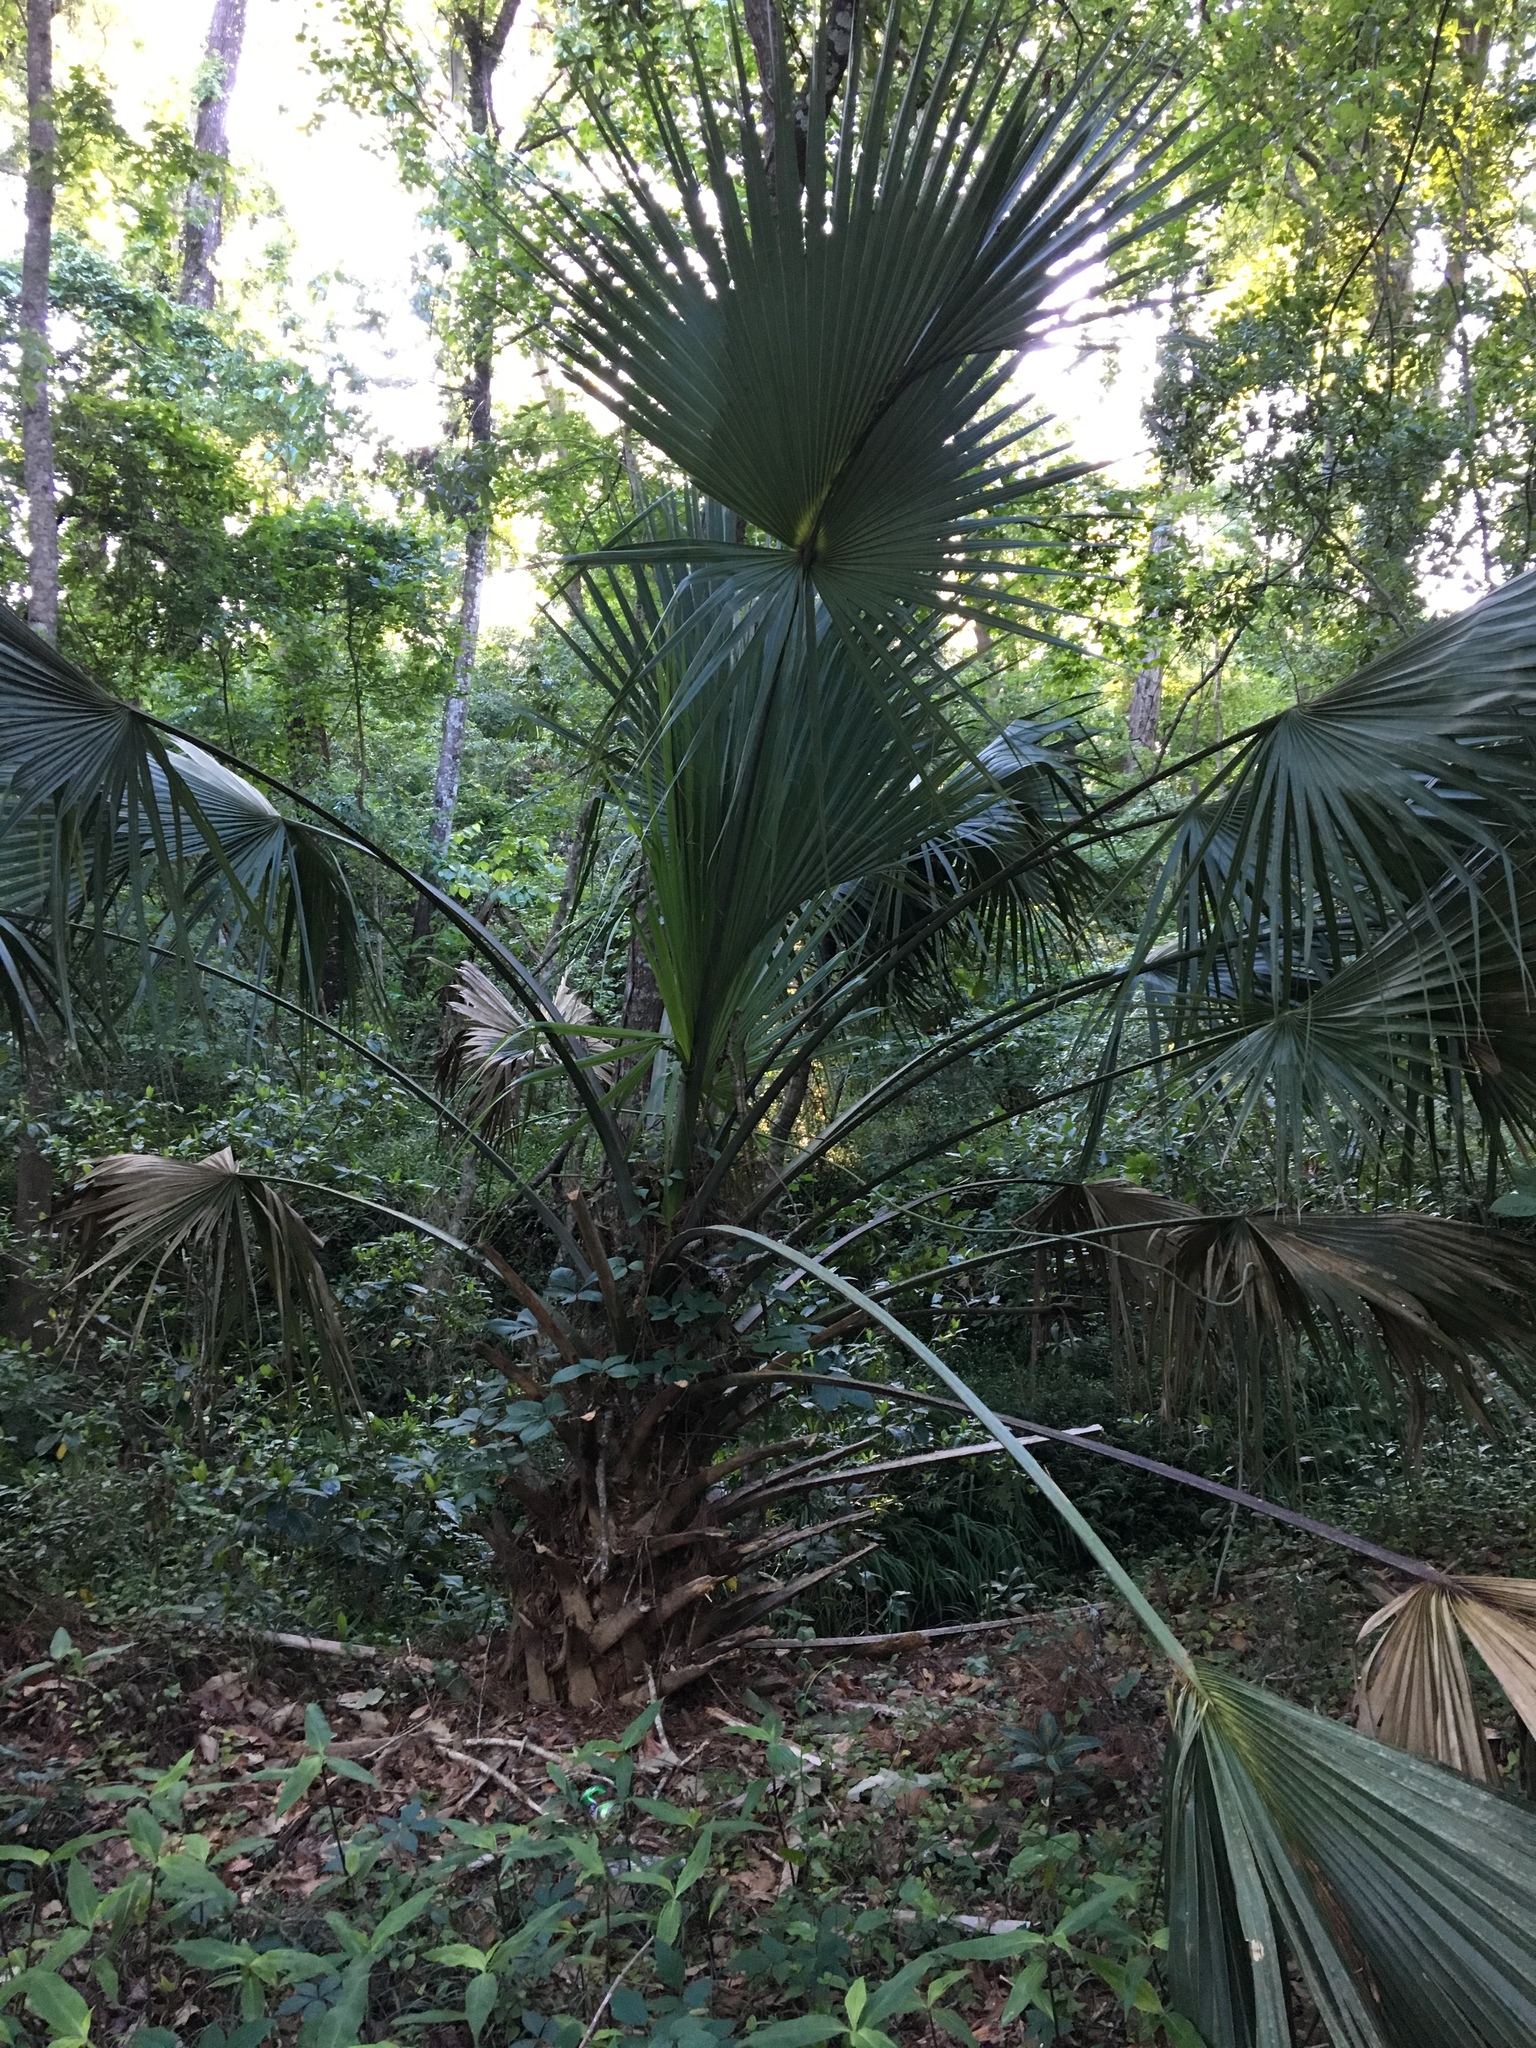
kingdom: Plantae
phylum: Tracheophyta
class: Liliopsida
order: Arecales
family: Arecaceae
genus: Sabal
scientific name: Sabal palmetto
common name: Blue palmetto
